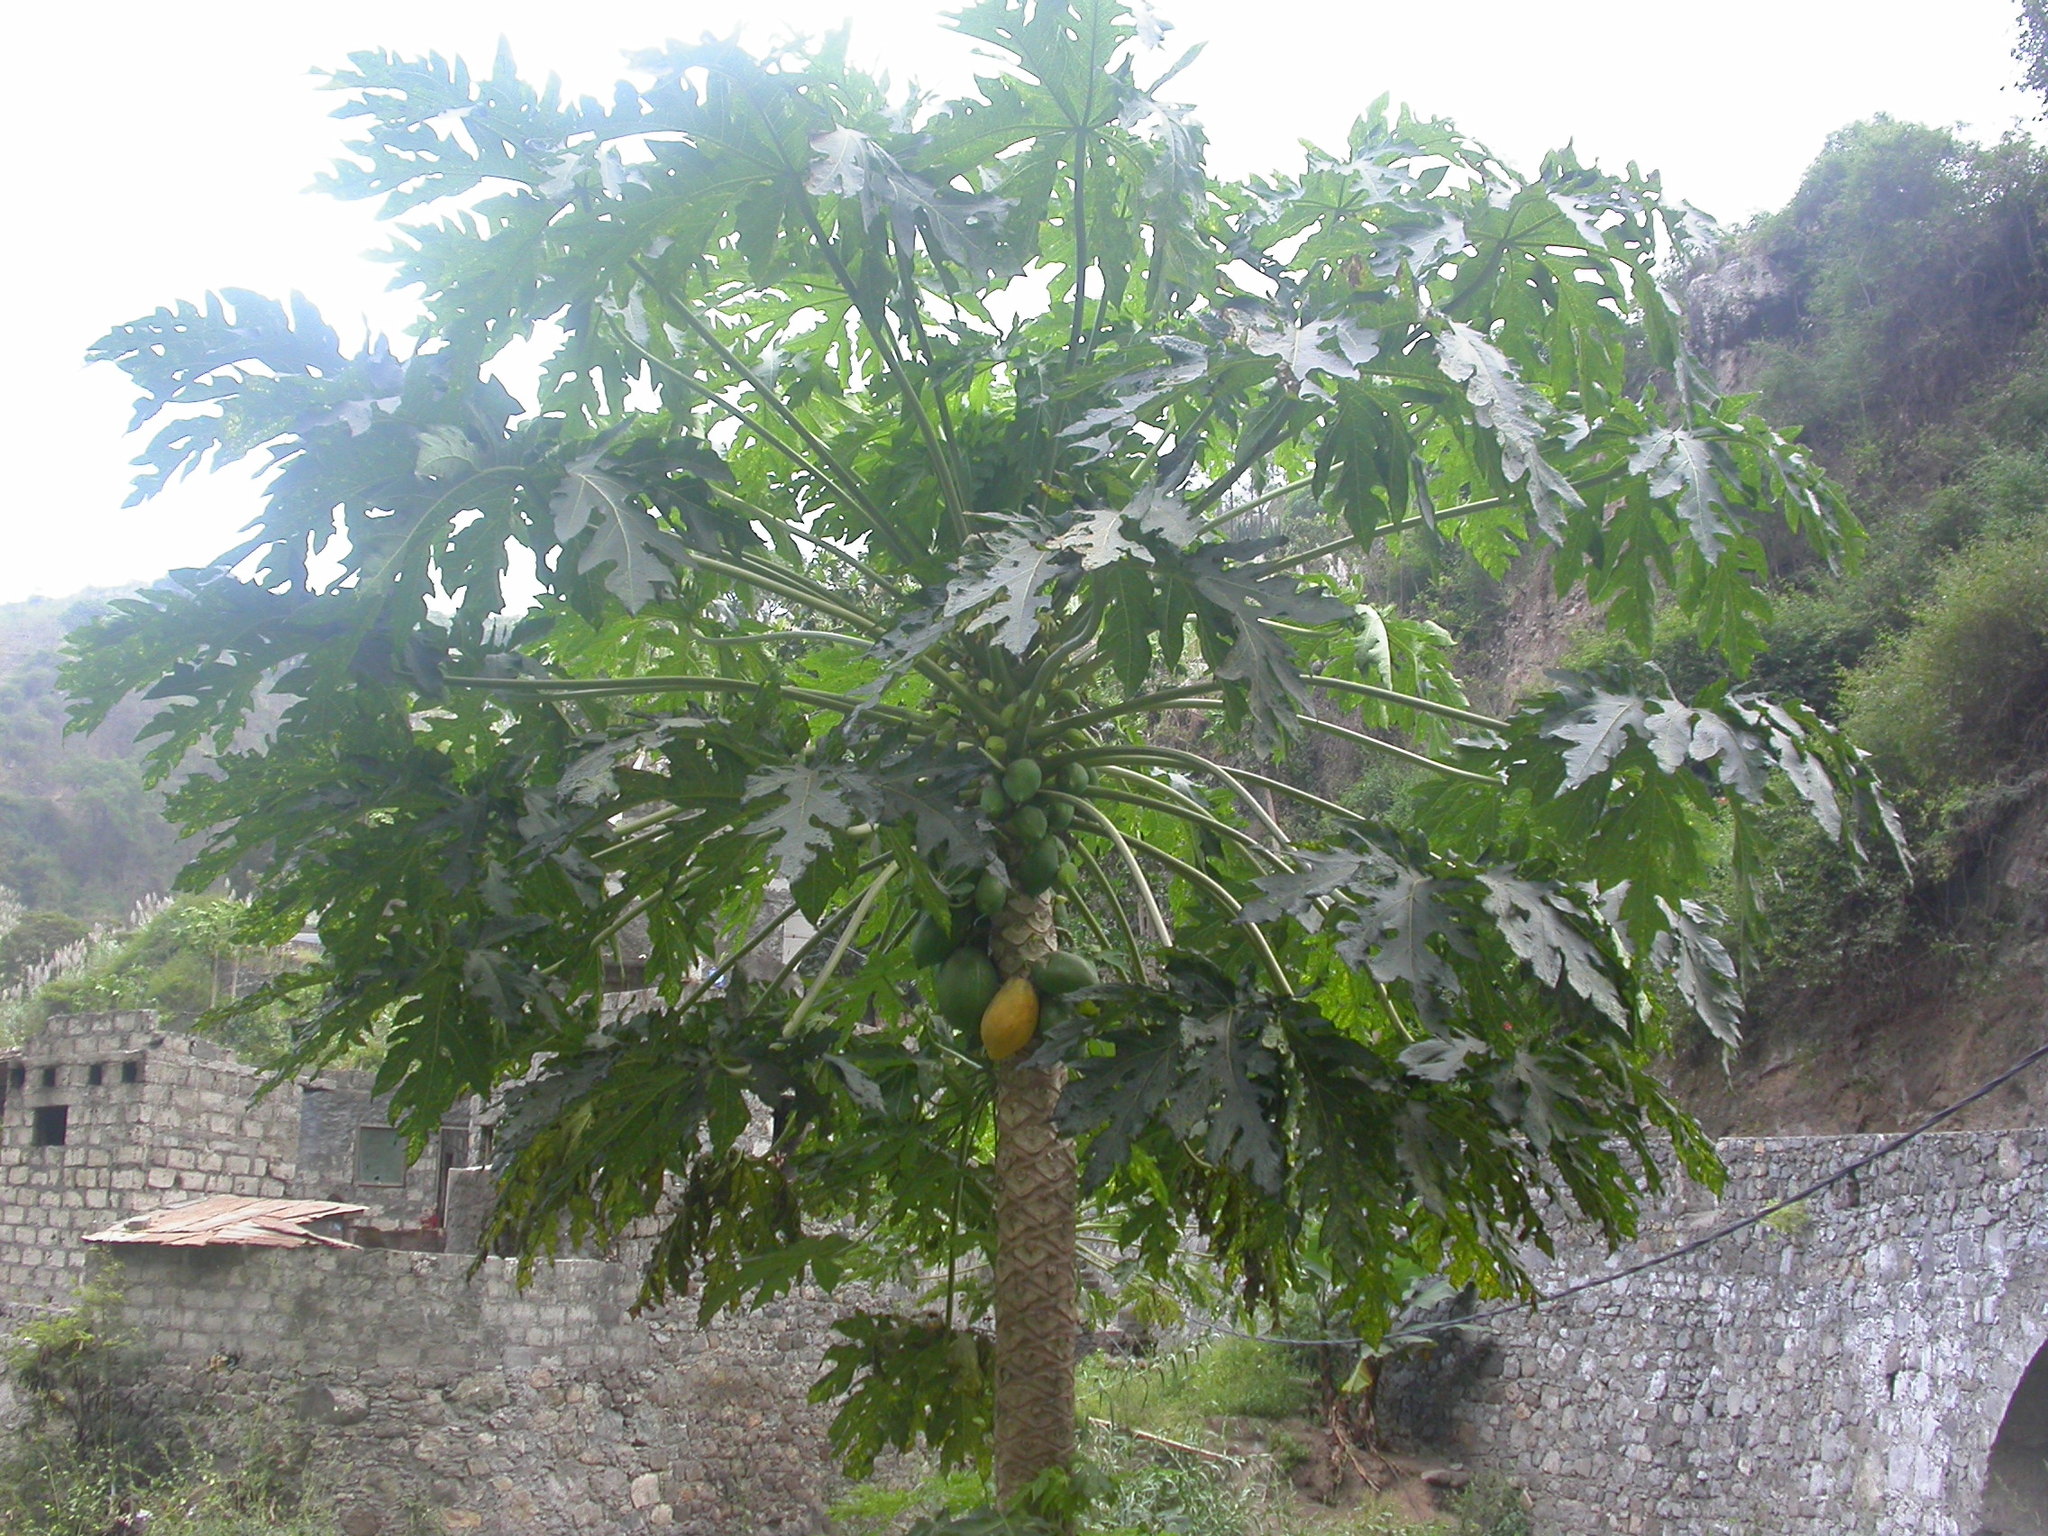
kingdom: Plantae
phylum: Tracheophyta
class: Magnoliopsida
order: Brassicales
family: Caricaceae
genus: Carica
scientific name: Carica papaya
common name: Papaya
